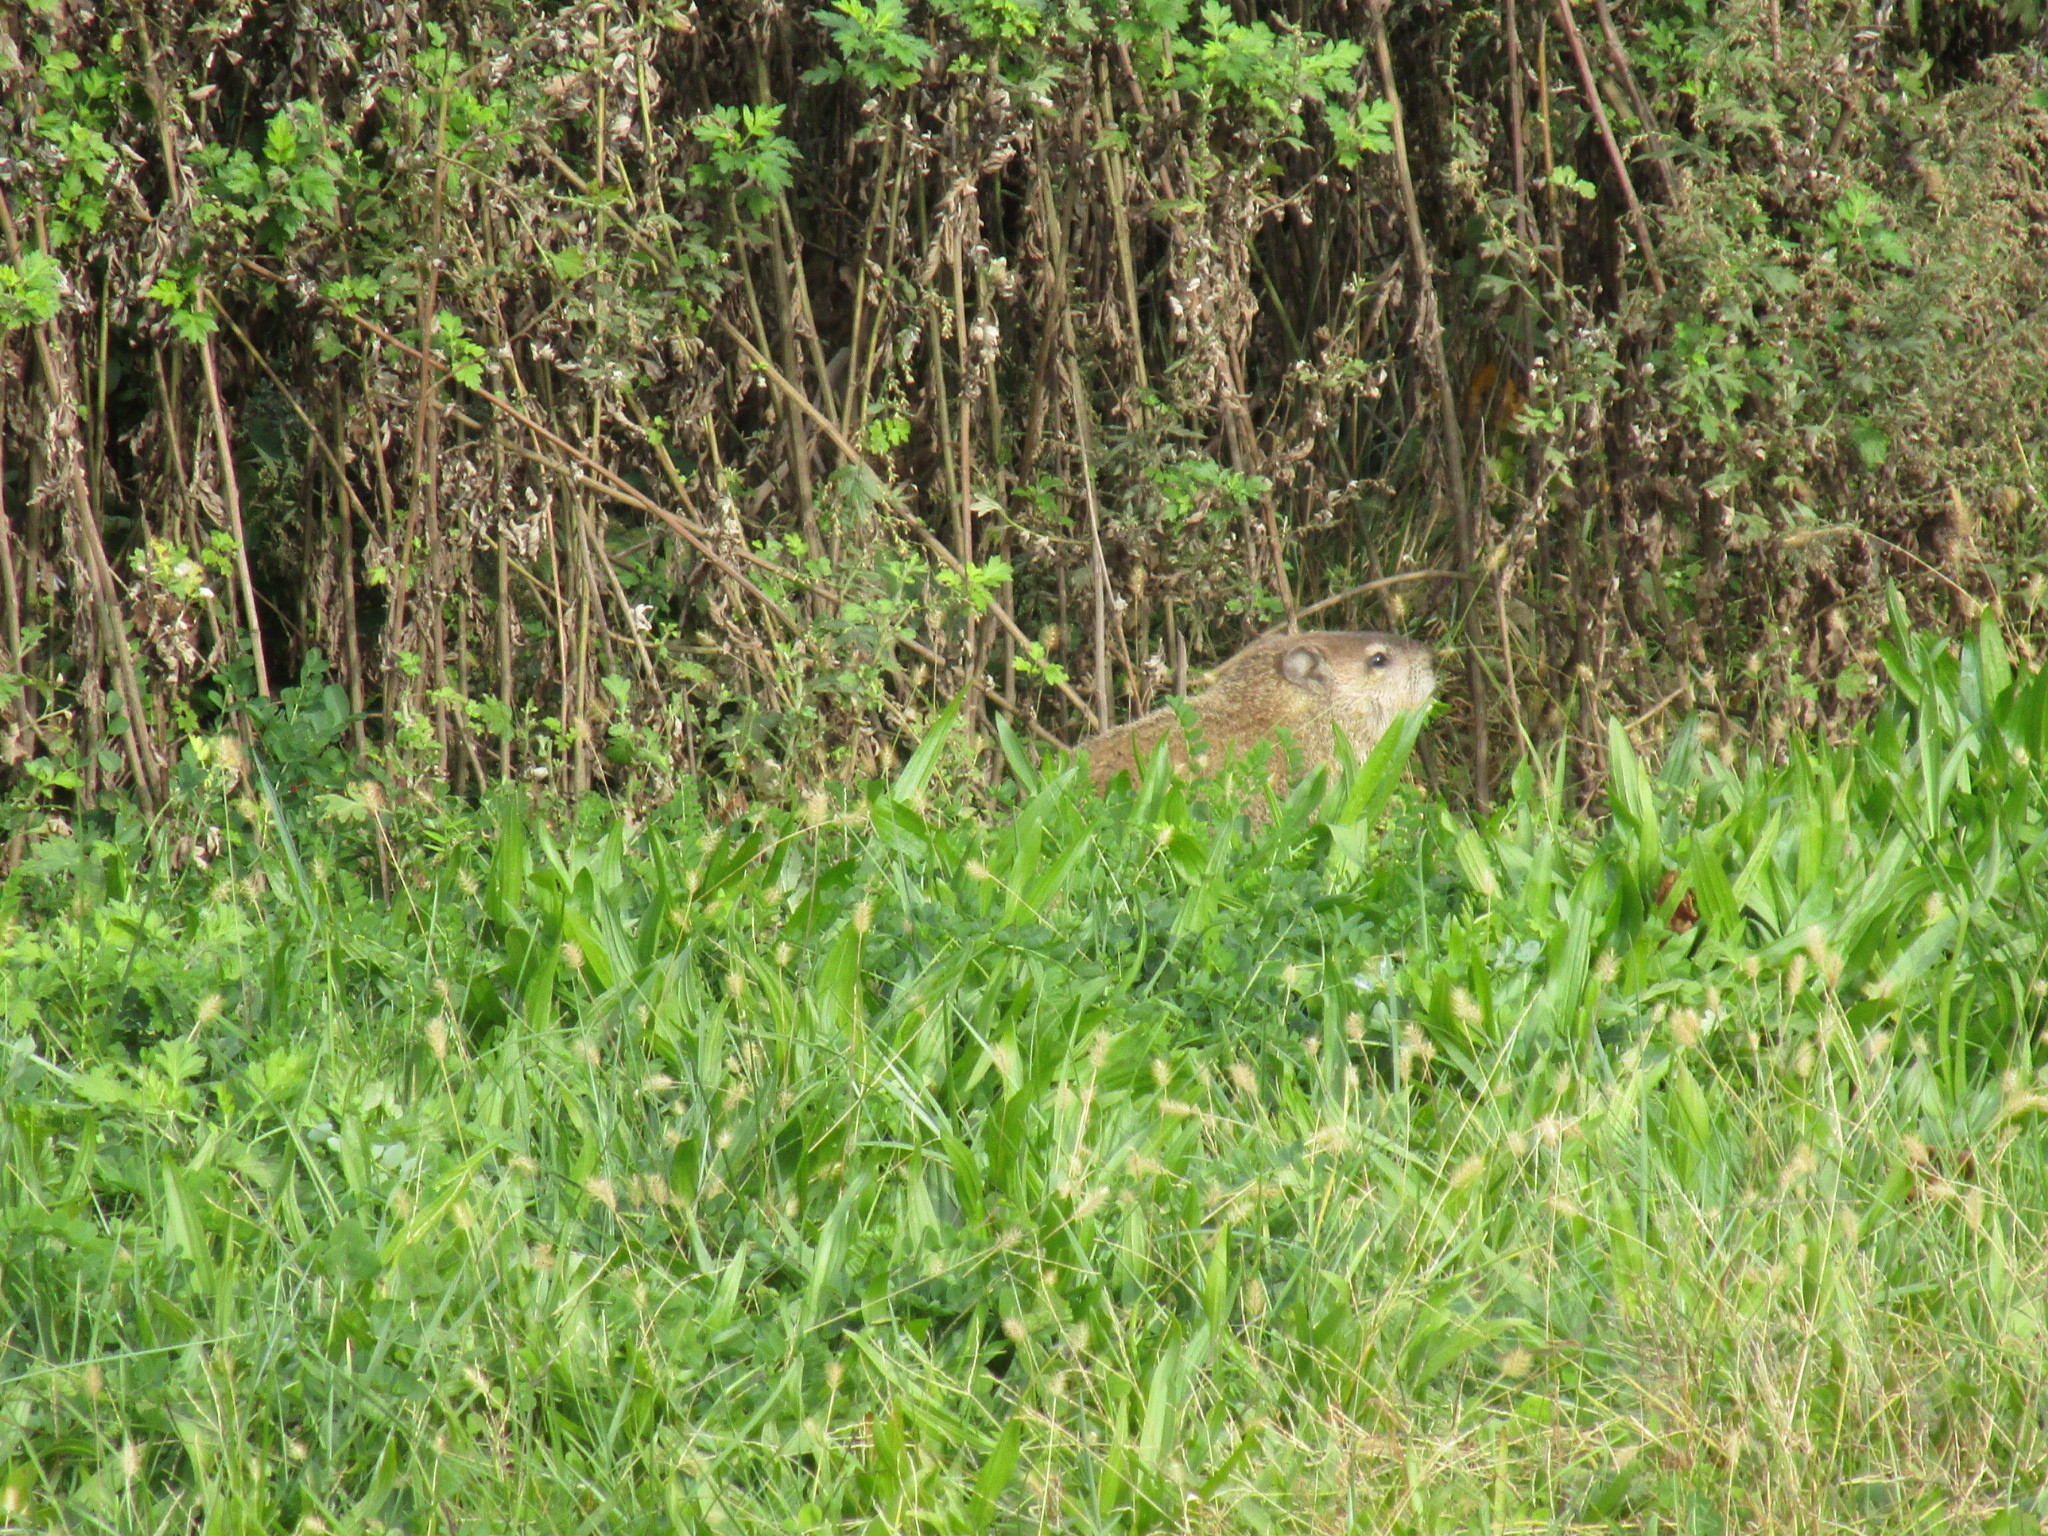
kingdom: Animalia
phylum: Chordata
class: Mammalia
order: Rodentia
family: Sciuridae
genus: Marmota
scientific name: Marmota monax
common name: Groundhog
